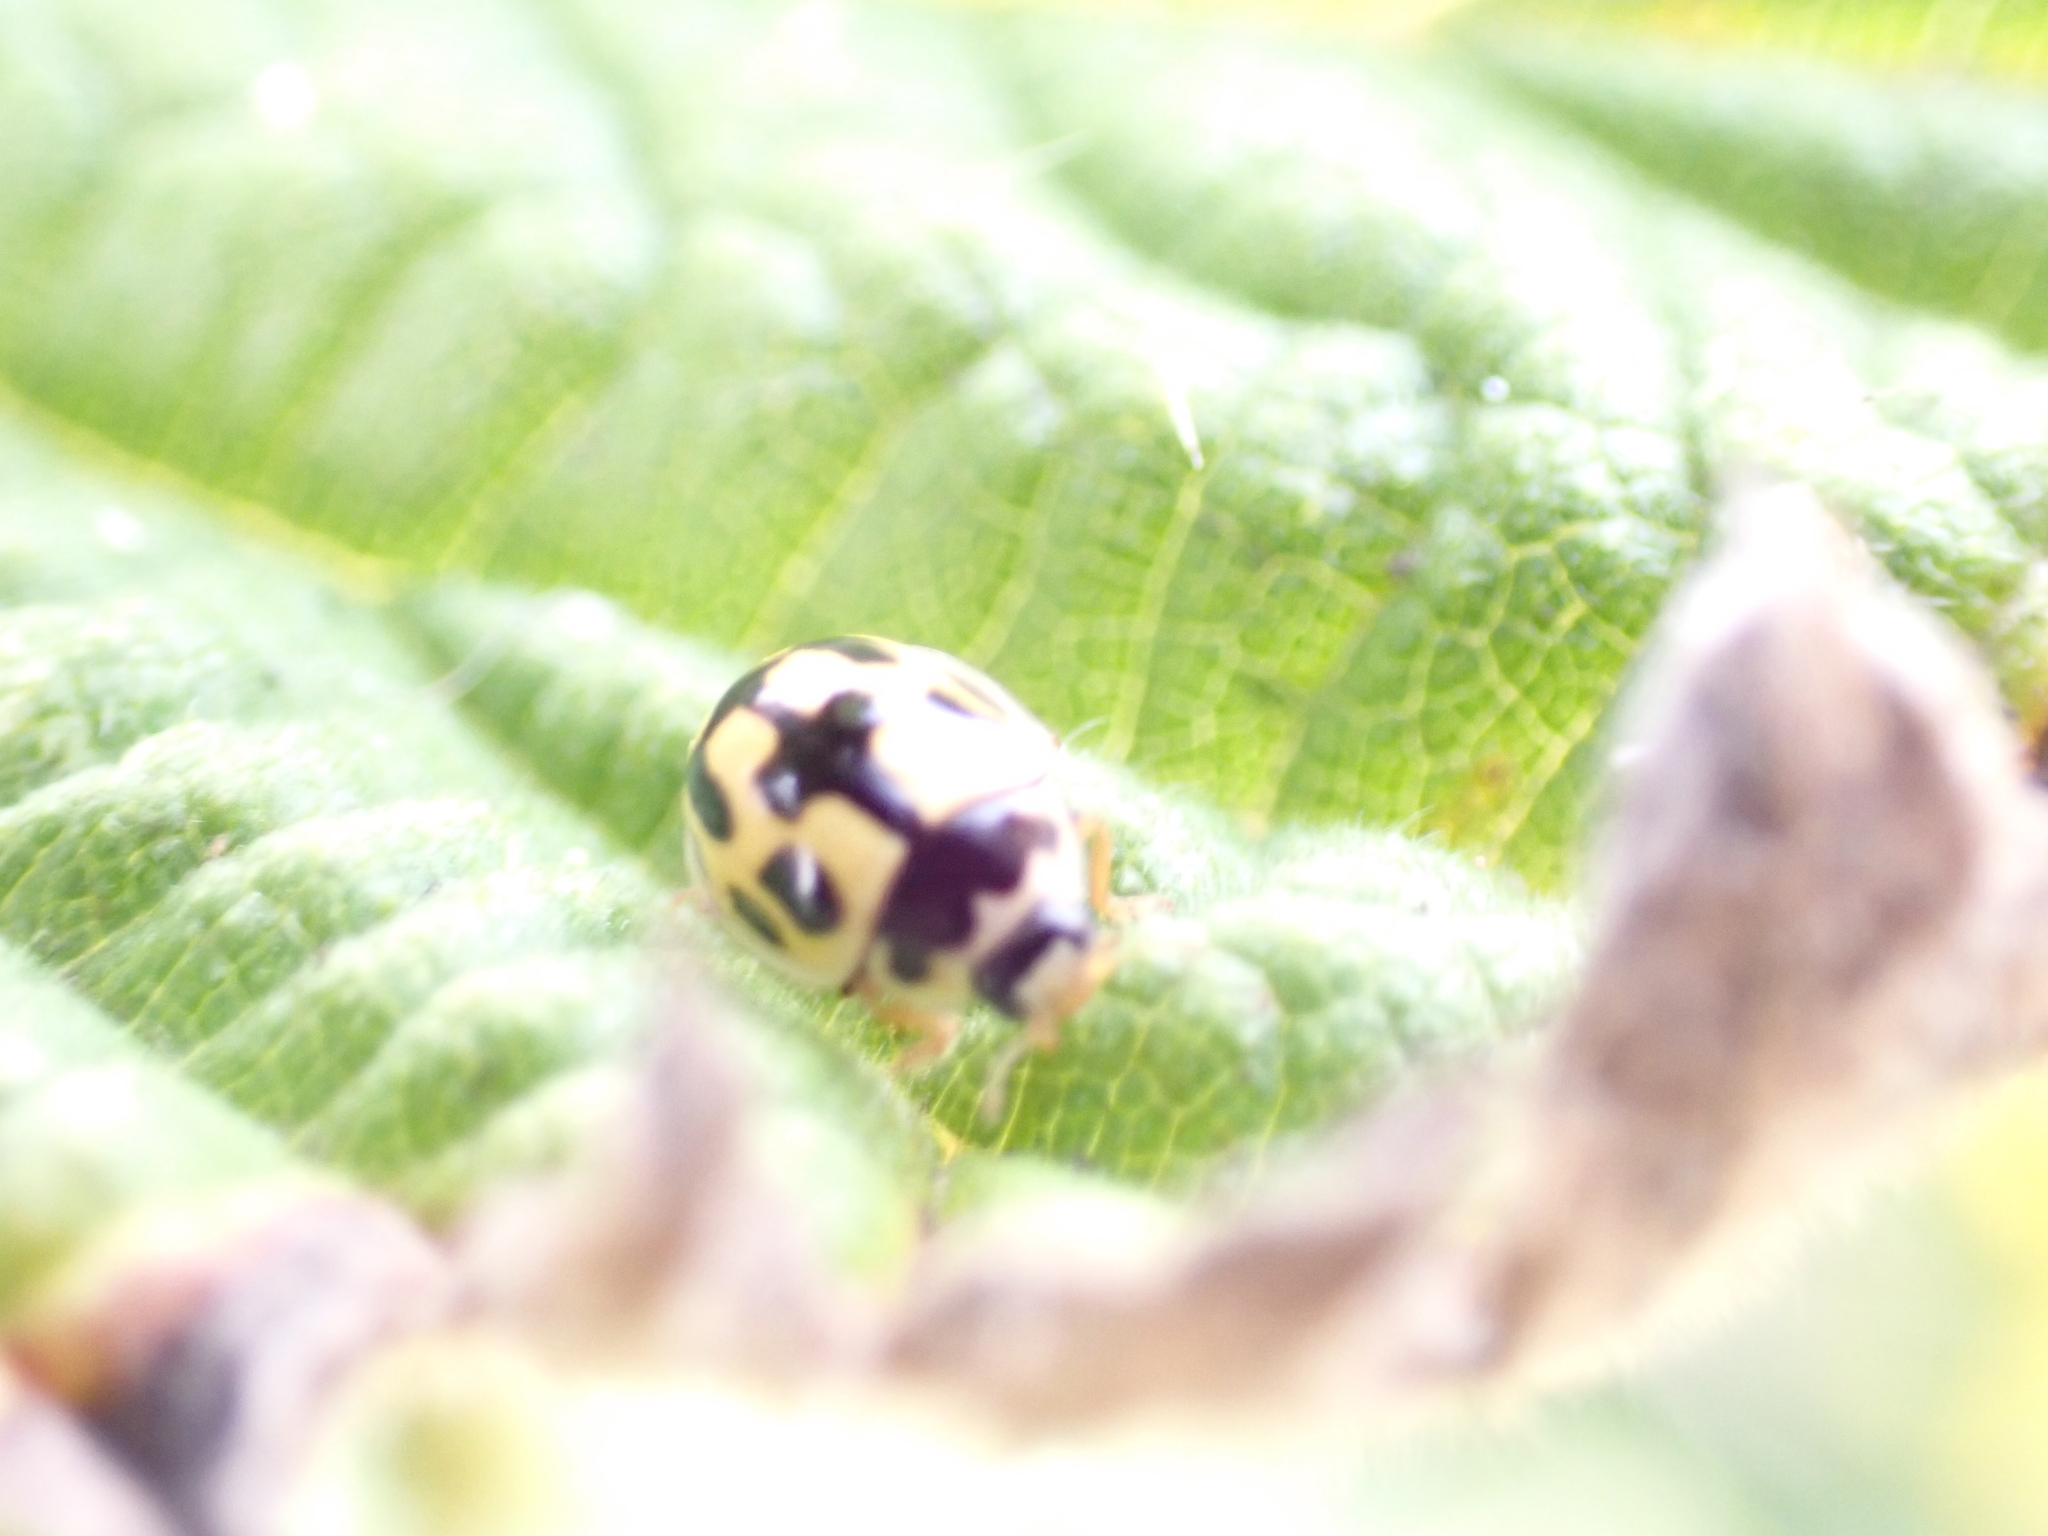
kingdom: Animalia
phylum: Arthropoda
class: Insecta
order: Coleoptera
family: Coccinellidae
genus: Propylaea
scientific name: Propylaea quatuordecimpunctata
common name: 14-spotted ladybird beetle
